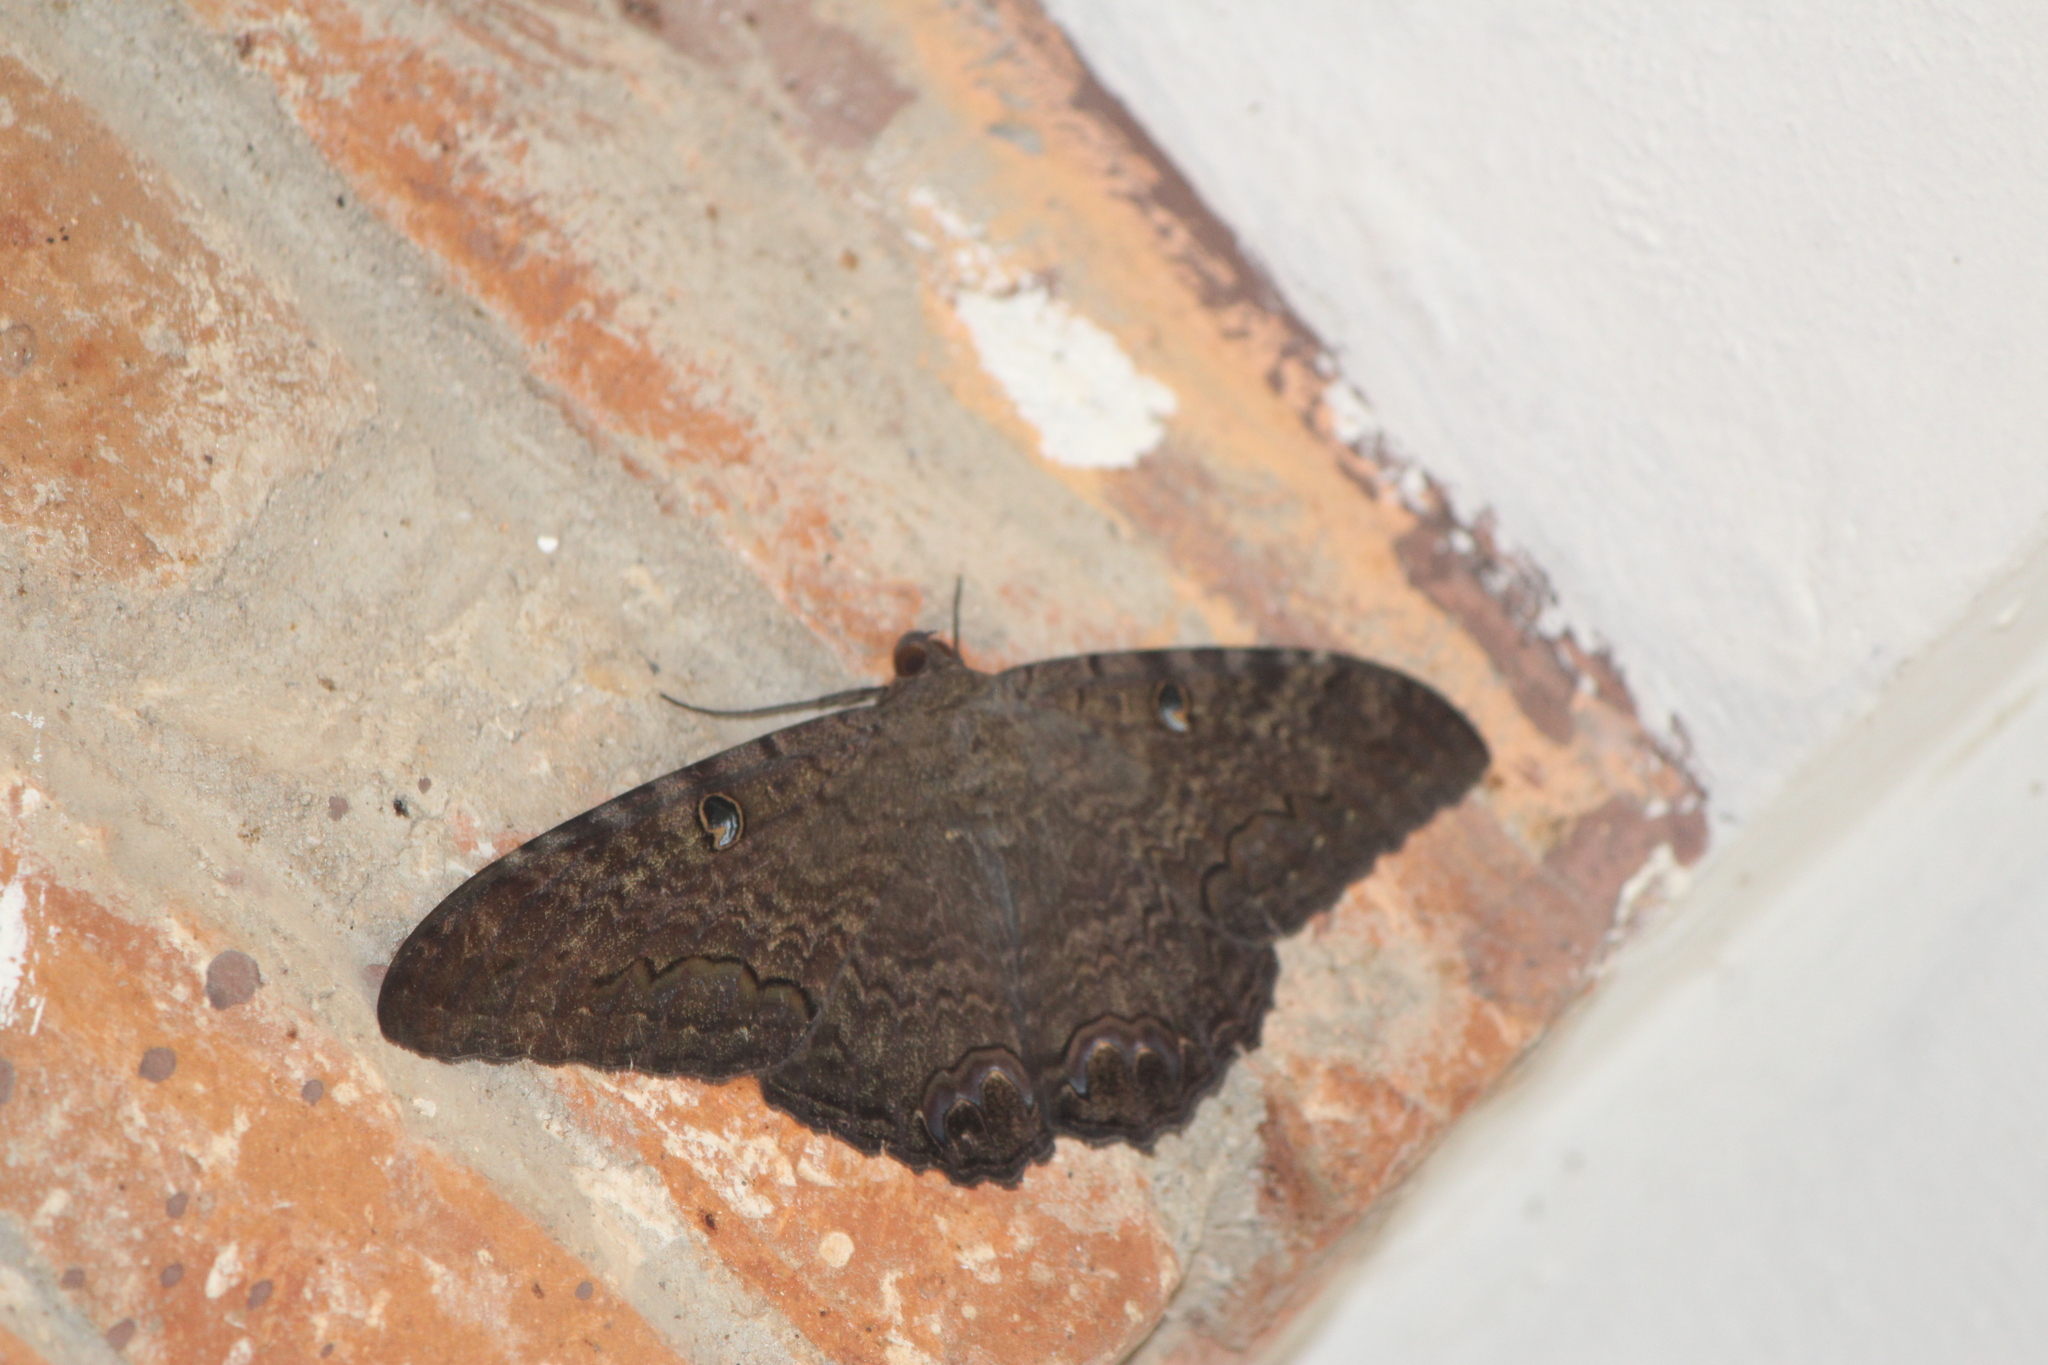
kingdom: Animalia
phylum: Arthropoda
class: Insecta
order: Lepidoptera
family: Erebidae
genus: Ascalapha
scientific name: Ascalapha odorata
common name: Black witch
